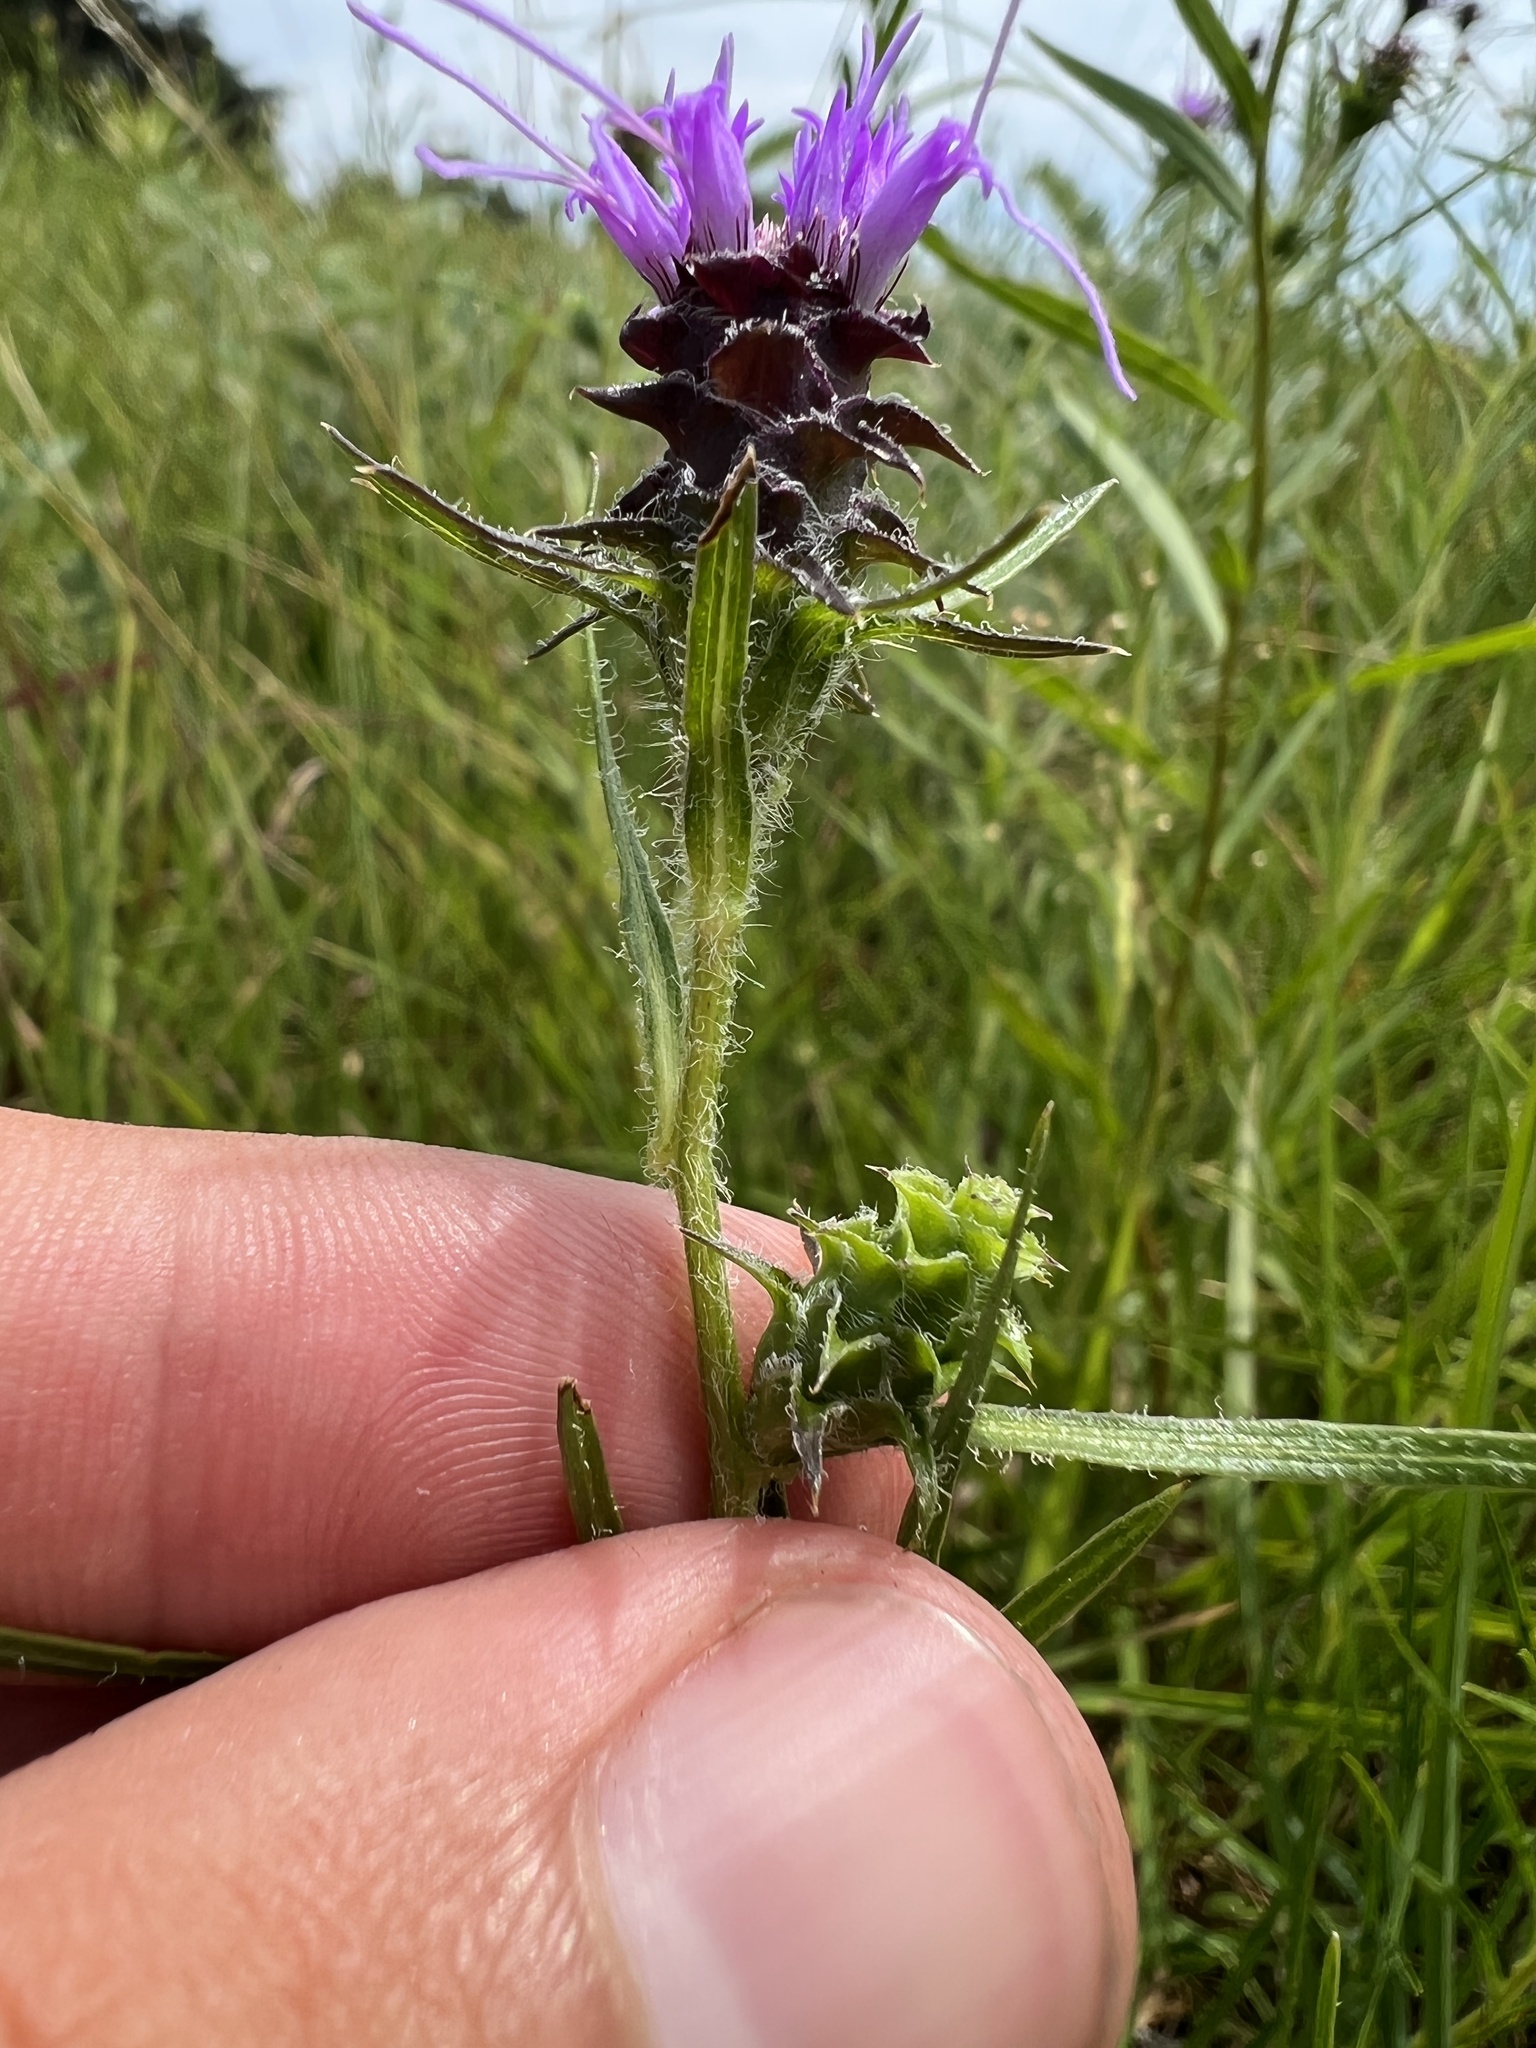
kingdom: Plantae
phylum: Tracheophyta
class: Magnoliopsida
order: Asterales
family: Asteraceae
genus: Liatris
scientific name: Liatris hirsuta
